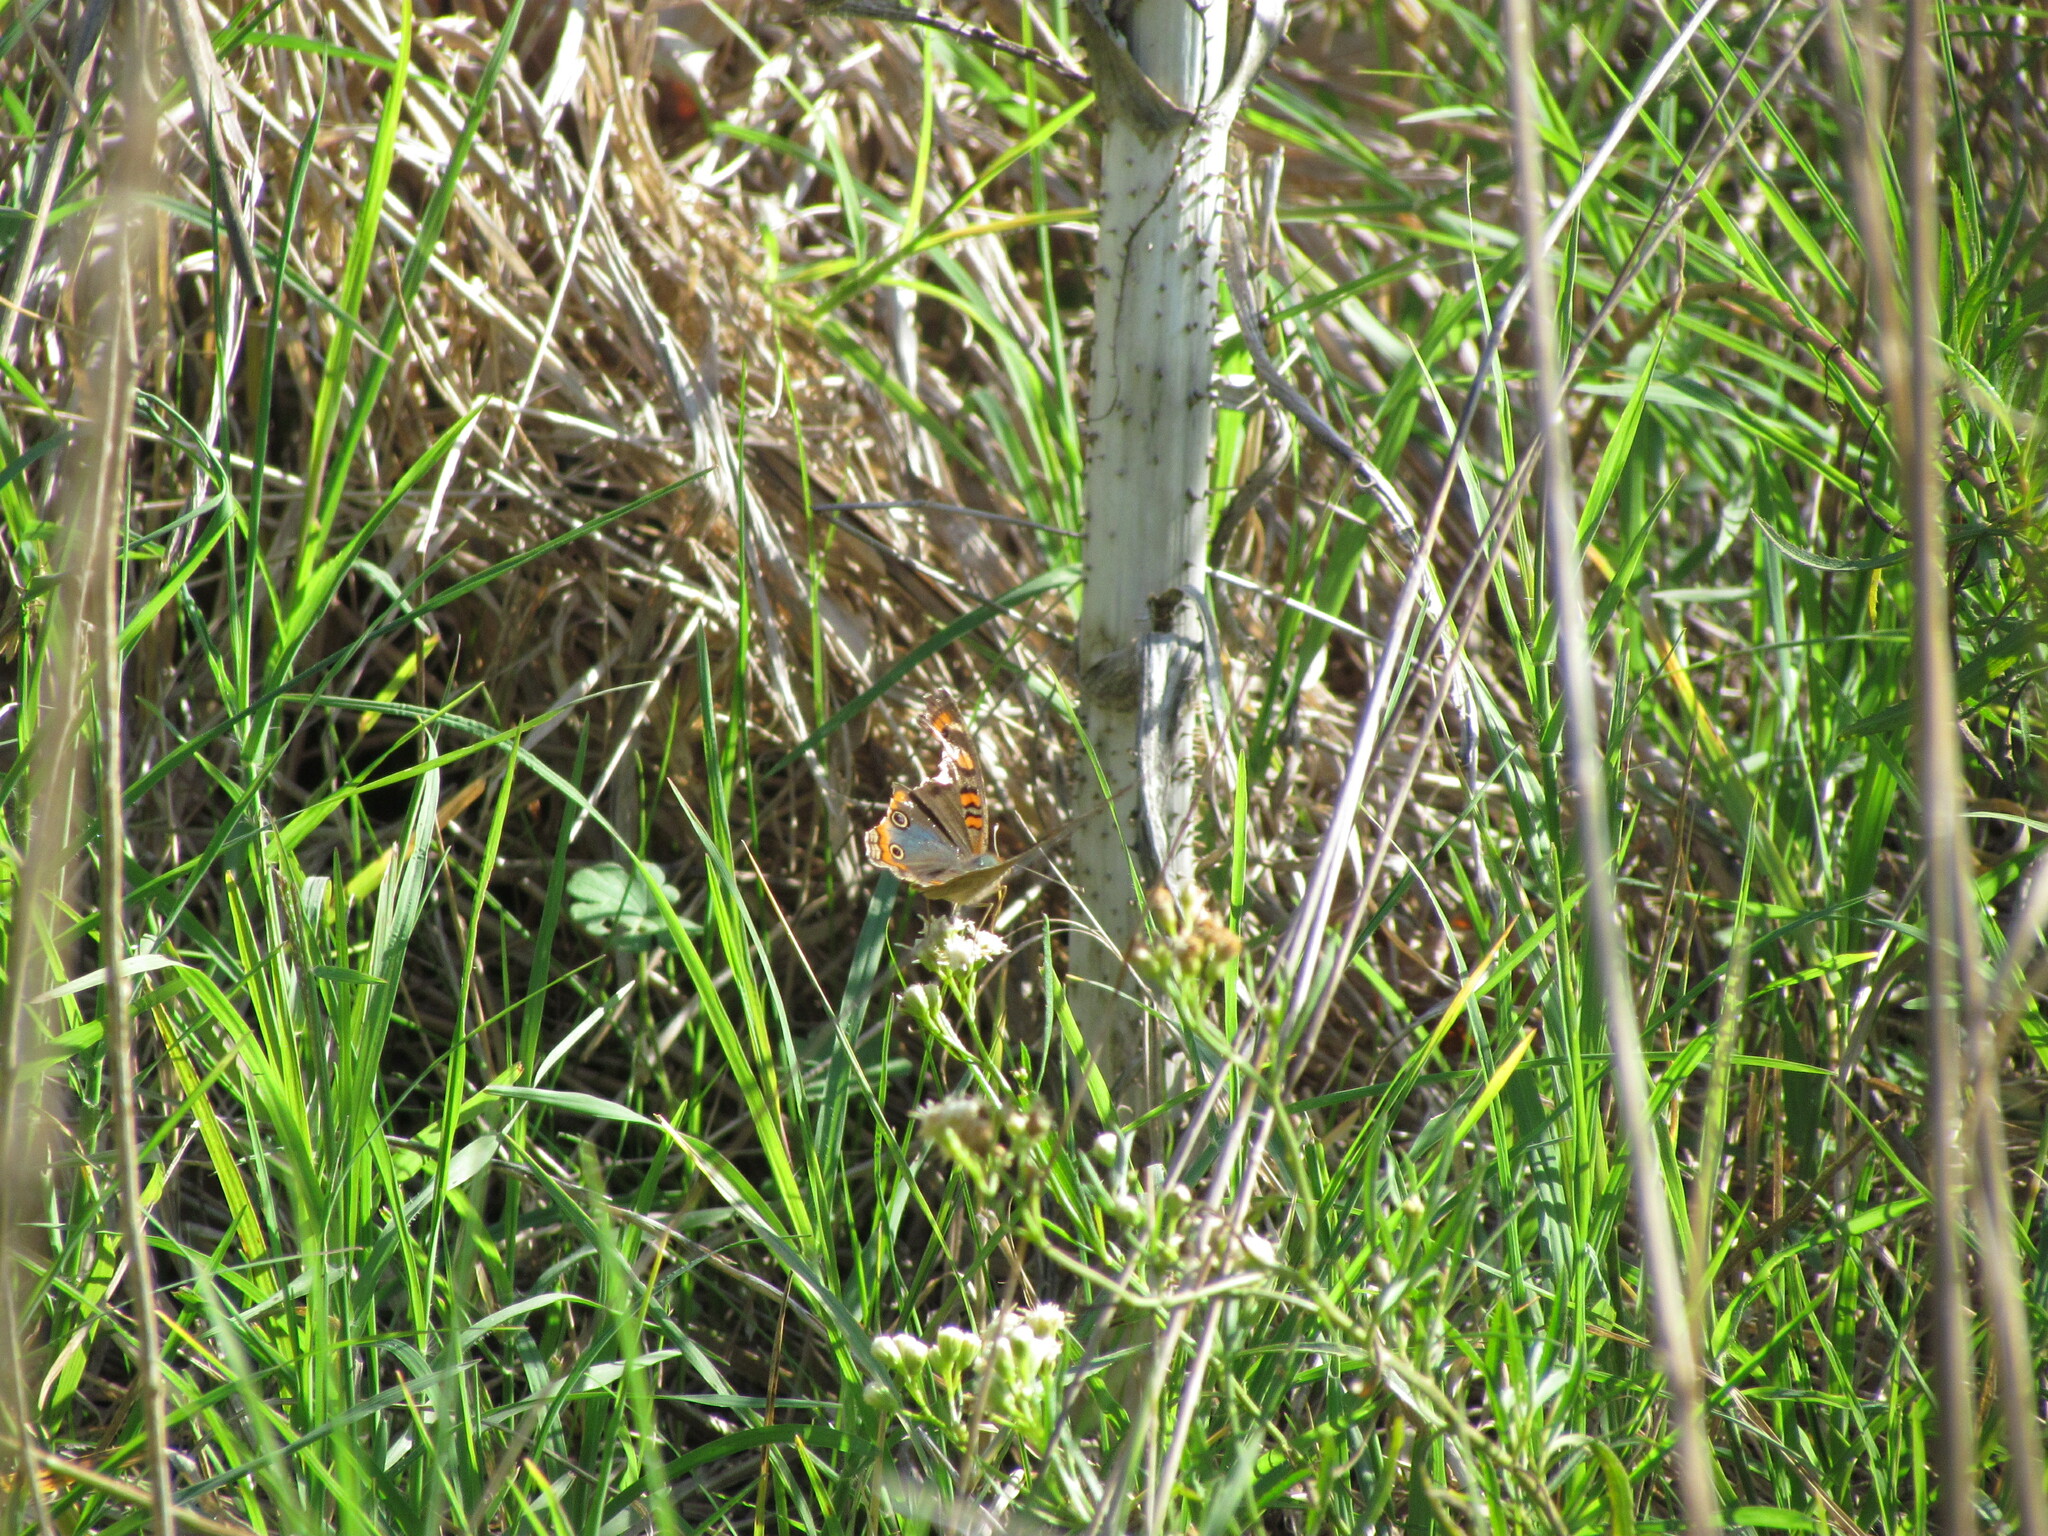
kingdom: Animalia
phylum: Arthropoda
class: Insecta
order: Lepidoptera
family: Nymphalidae
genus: Junonia
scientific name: Junonia lavinia
